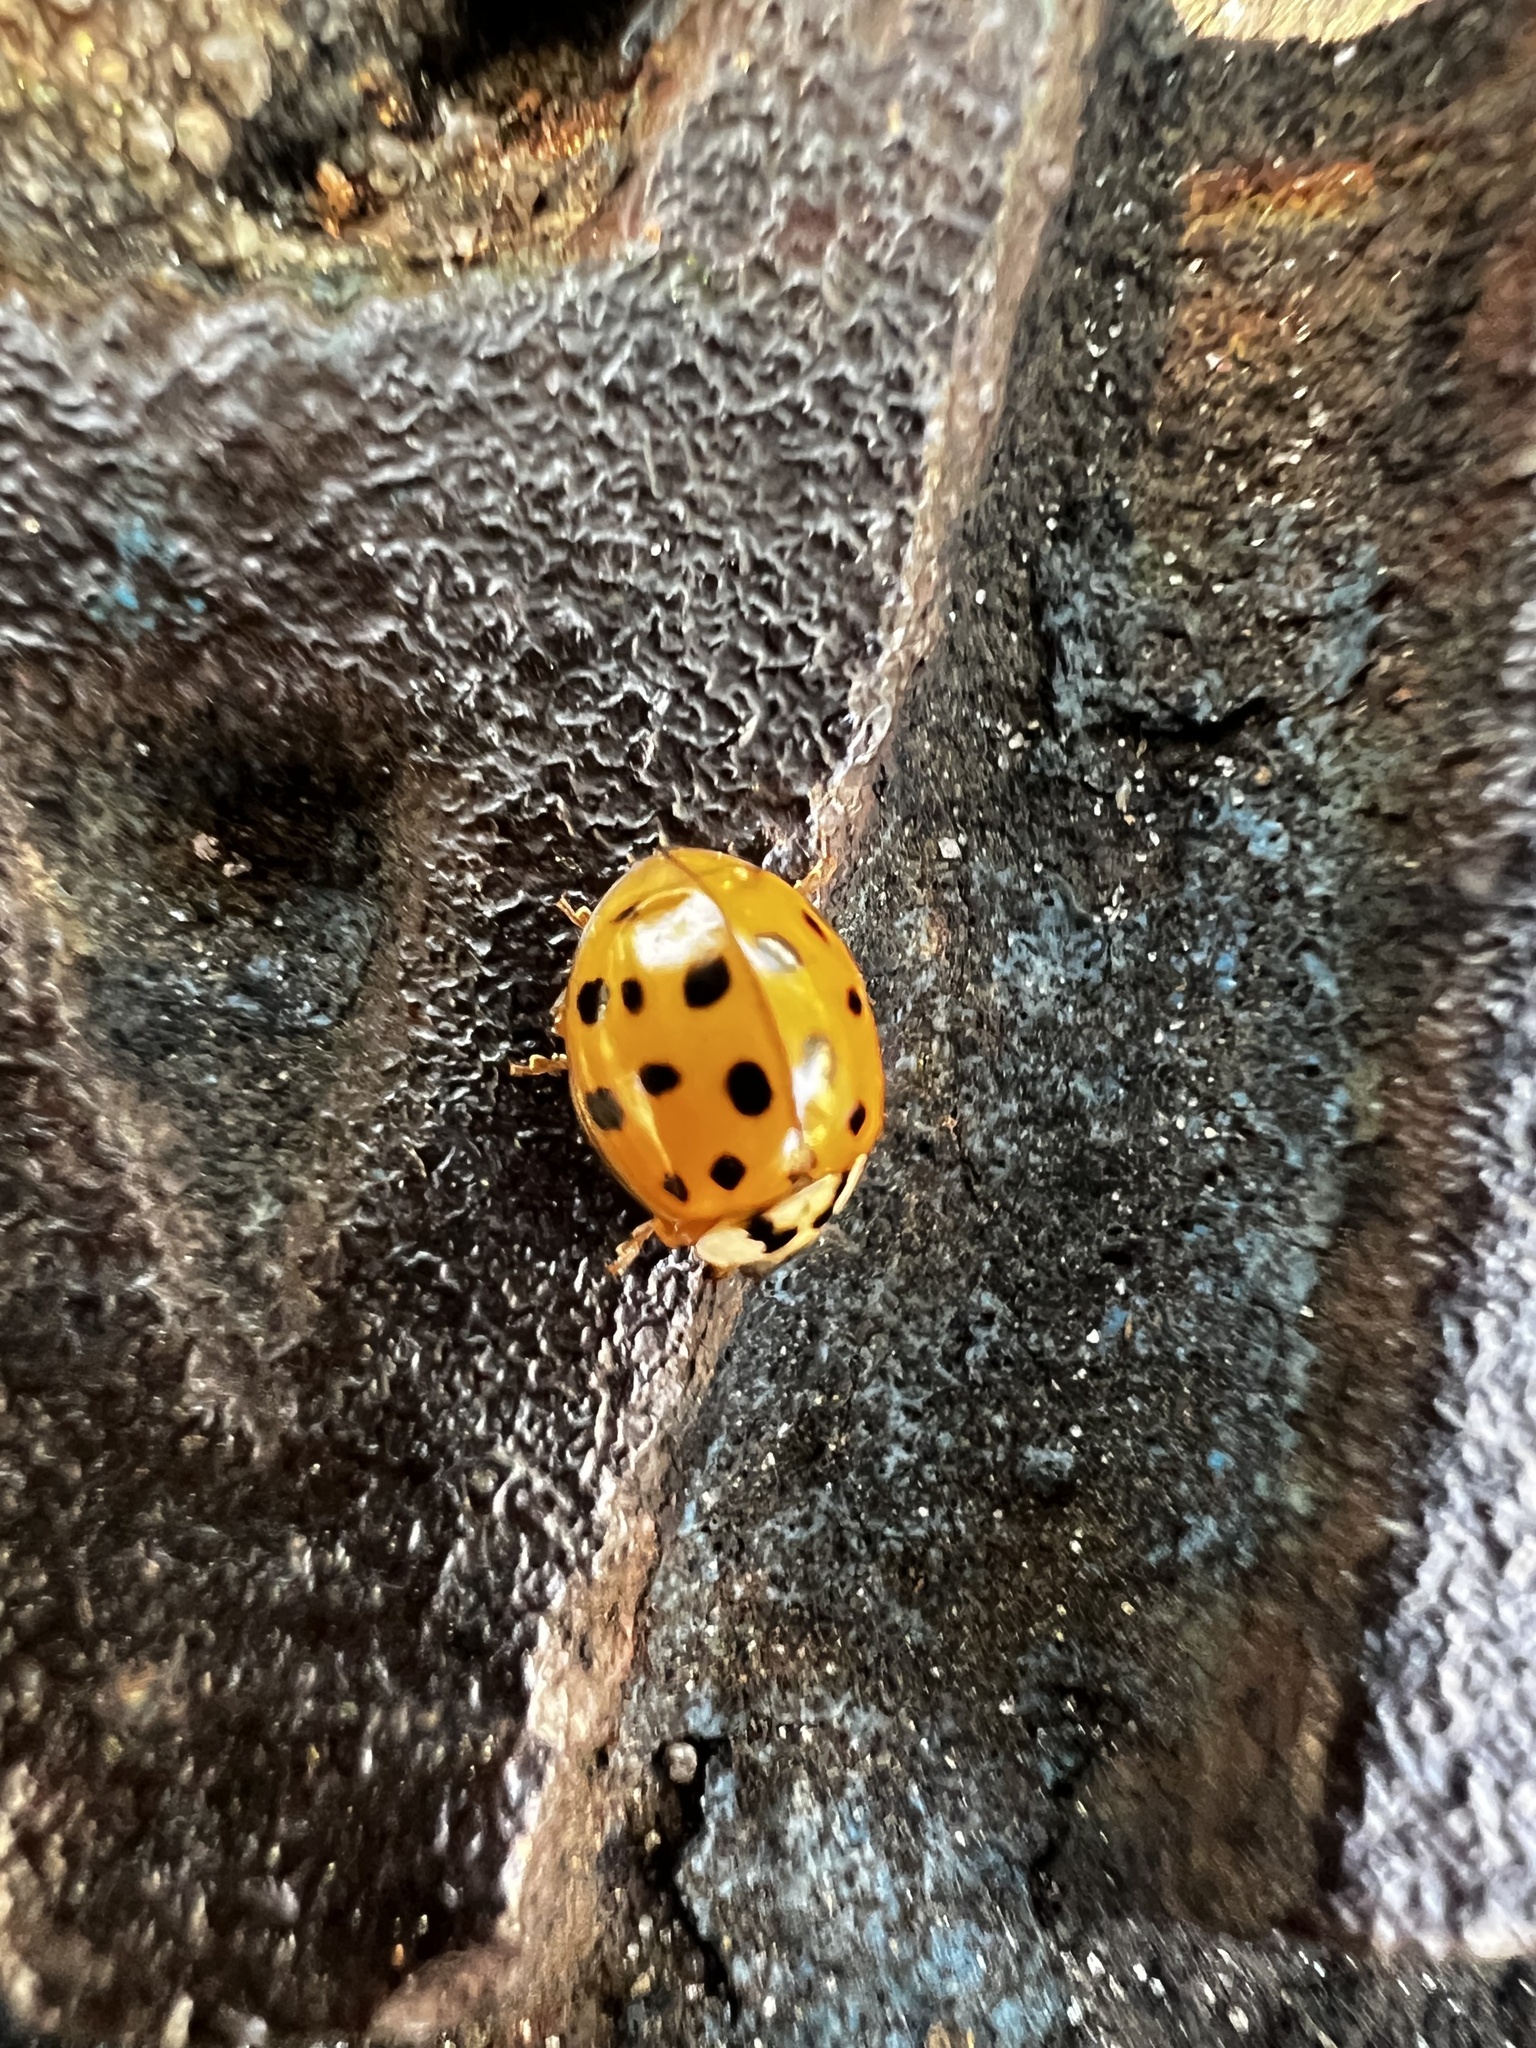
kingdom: Animalia
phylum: Arthropoda
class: Insecta
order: Coleoptera
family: Coccinellidae
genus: Harmonia
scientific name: Harmonia axyridis
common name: Harlequin ladybird
